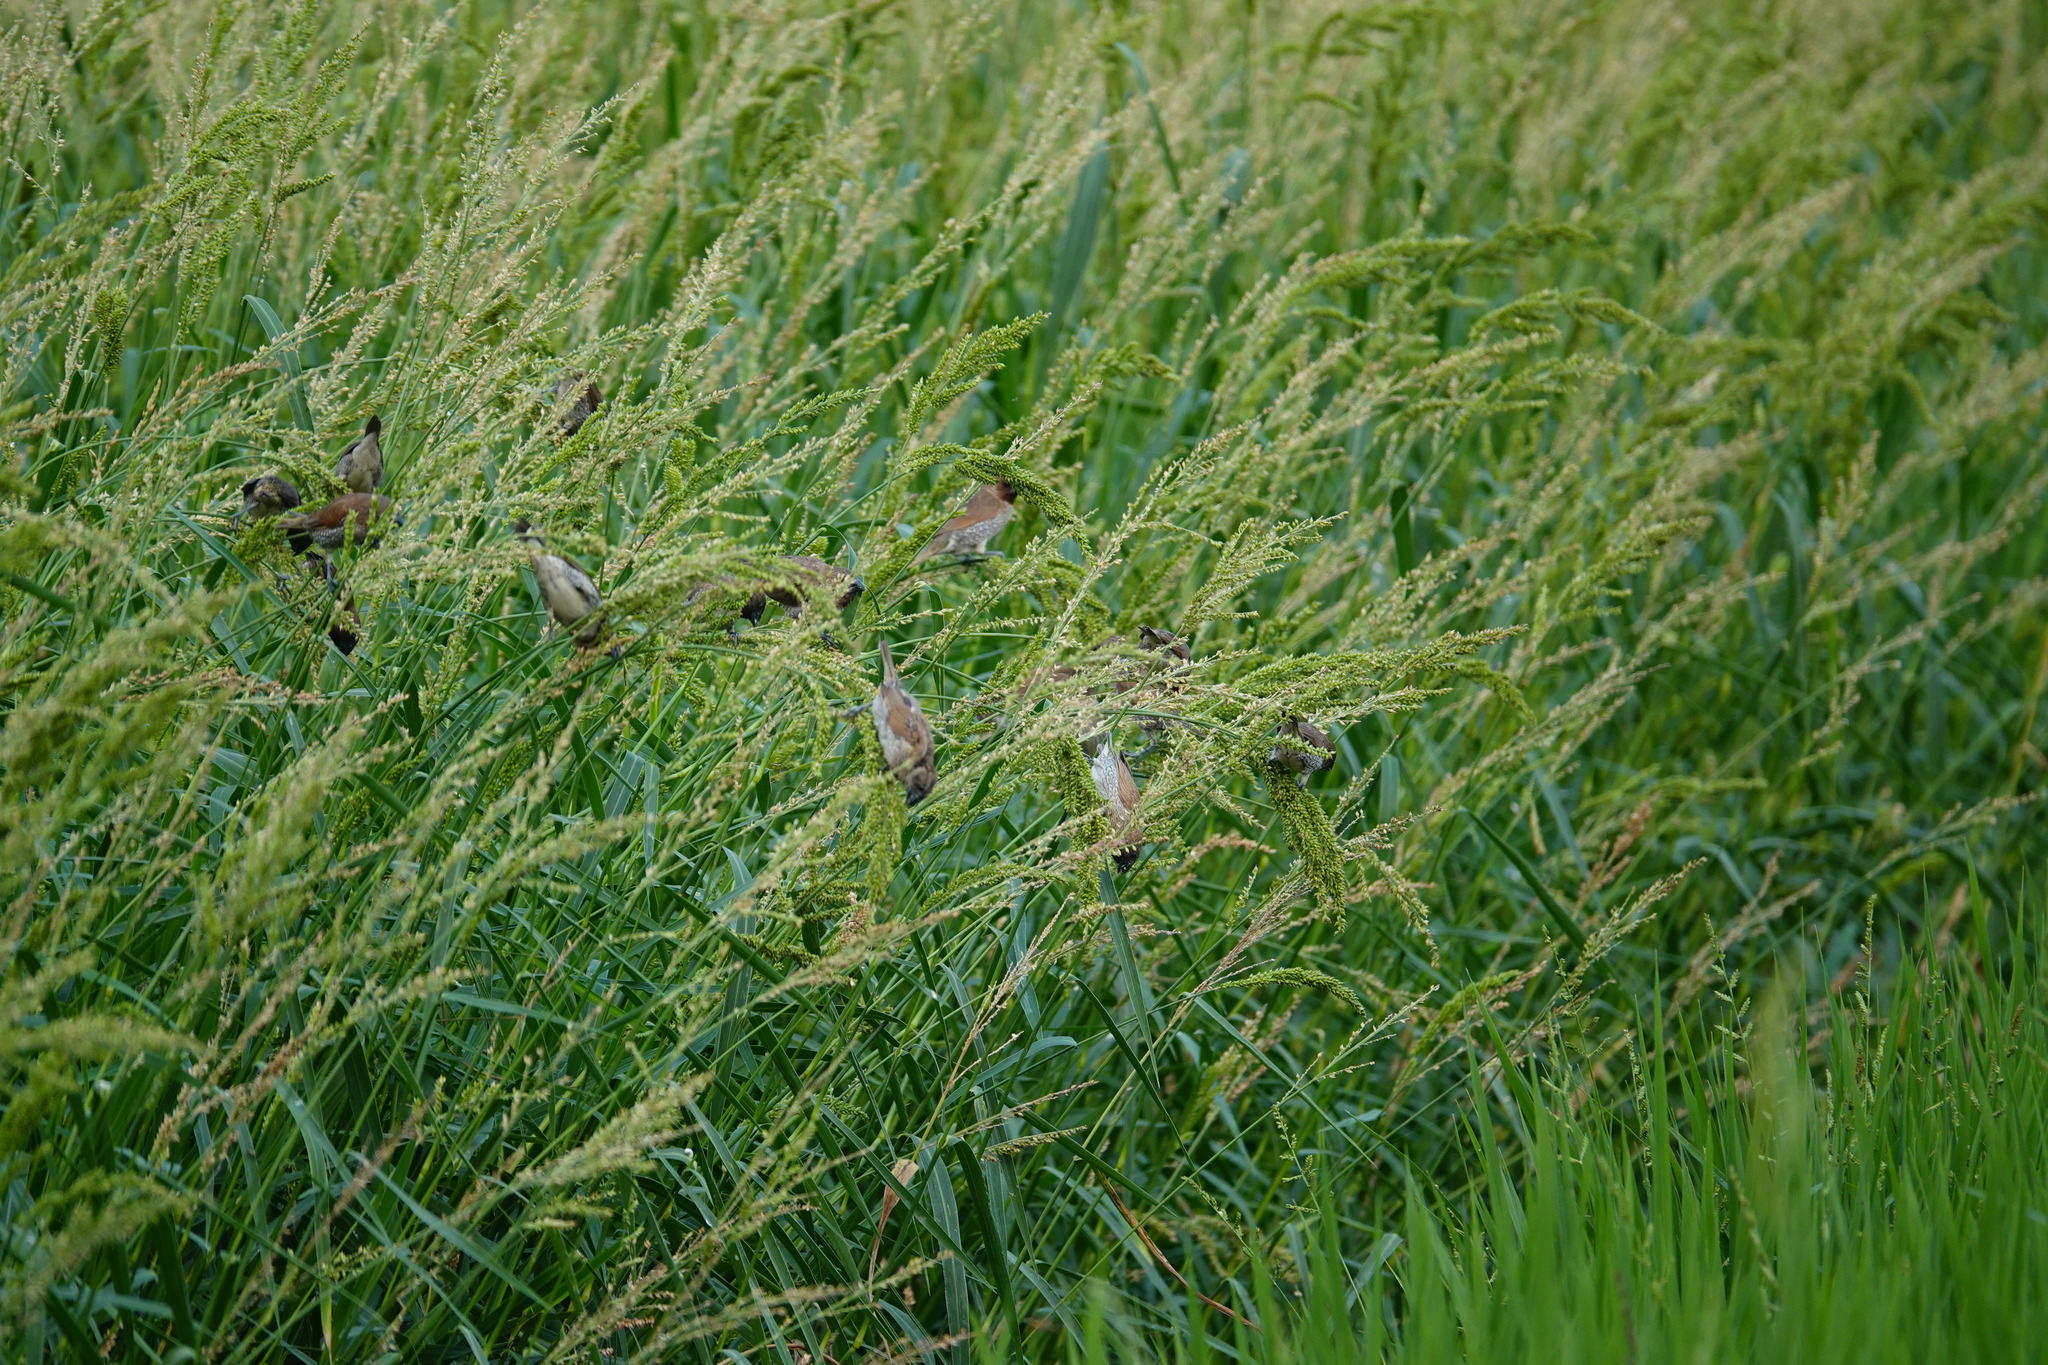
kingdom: Animalia
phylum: Chordata
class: Aves
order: Passeriformes
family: Estrildidae
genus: Lonchura
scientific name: Lonchura punctulata
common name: Scaly-breasted munia
